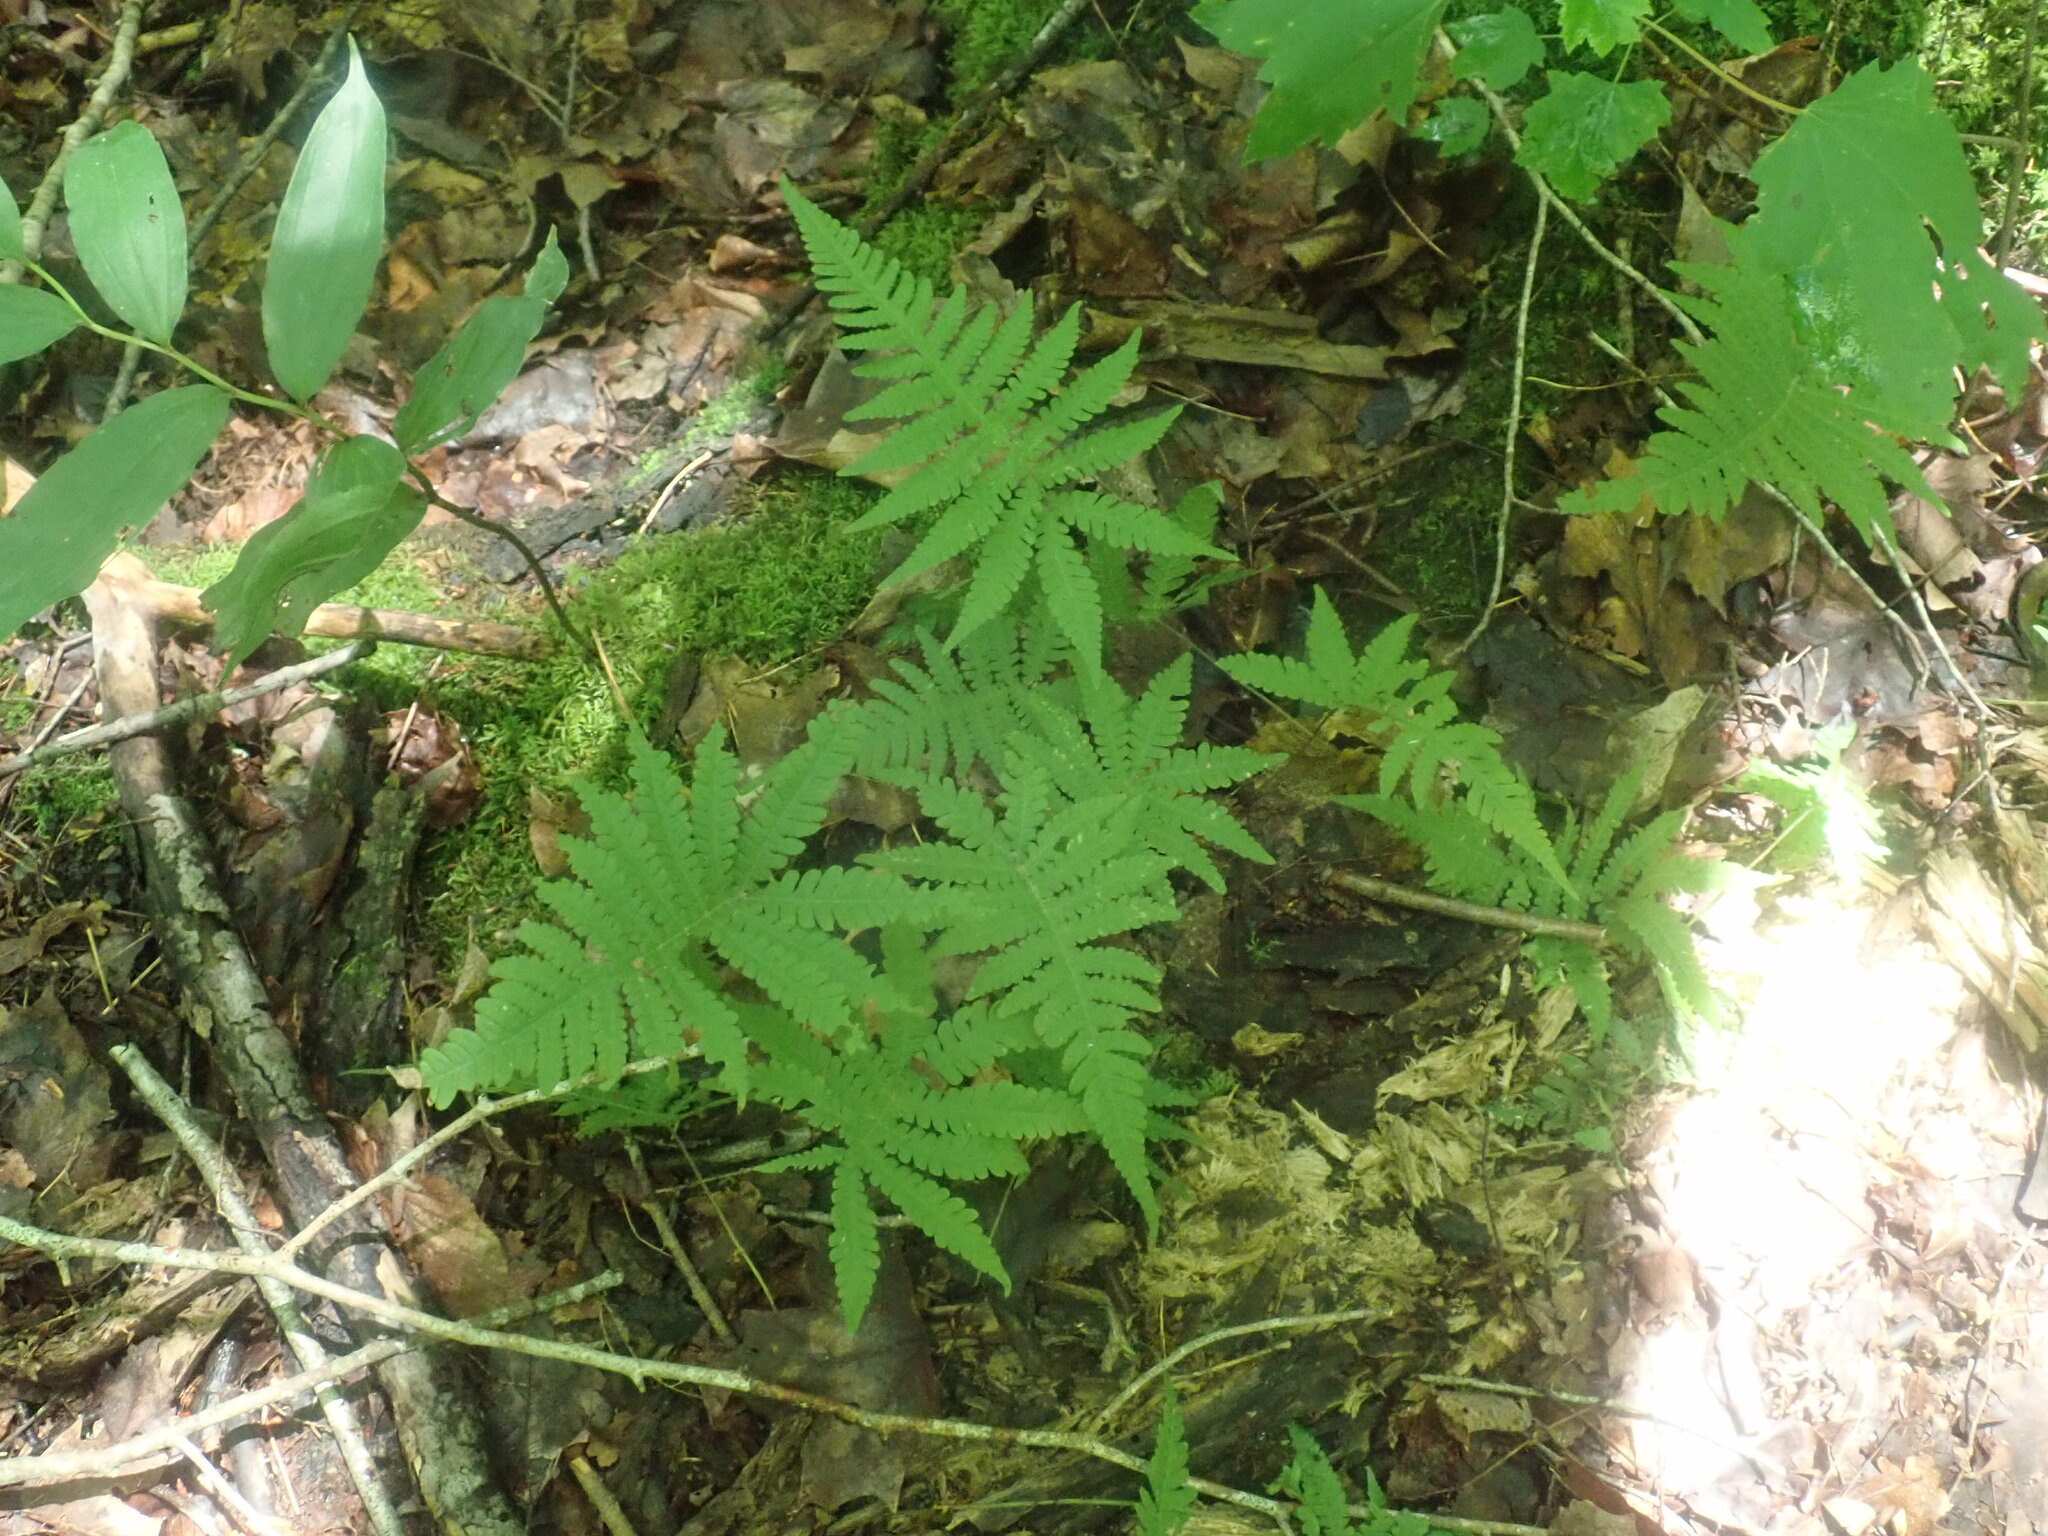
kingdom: Plantae
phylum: Tracheophyta
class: Polypodiopsida
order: Polypodiales
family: Thelypteridaceae
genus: Phegopteris
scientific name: Phegopteris connectilis
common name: Beech fern
